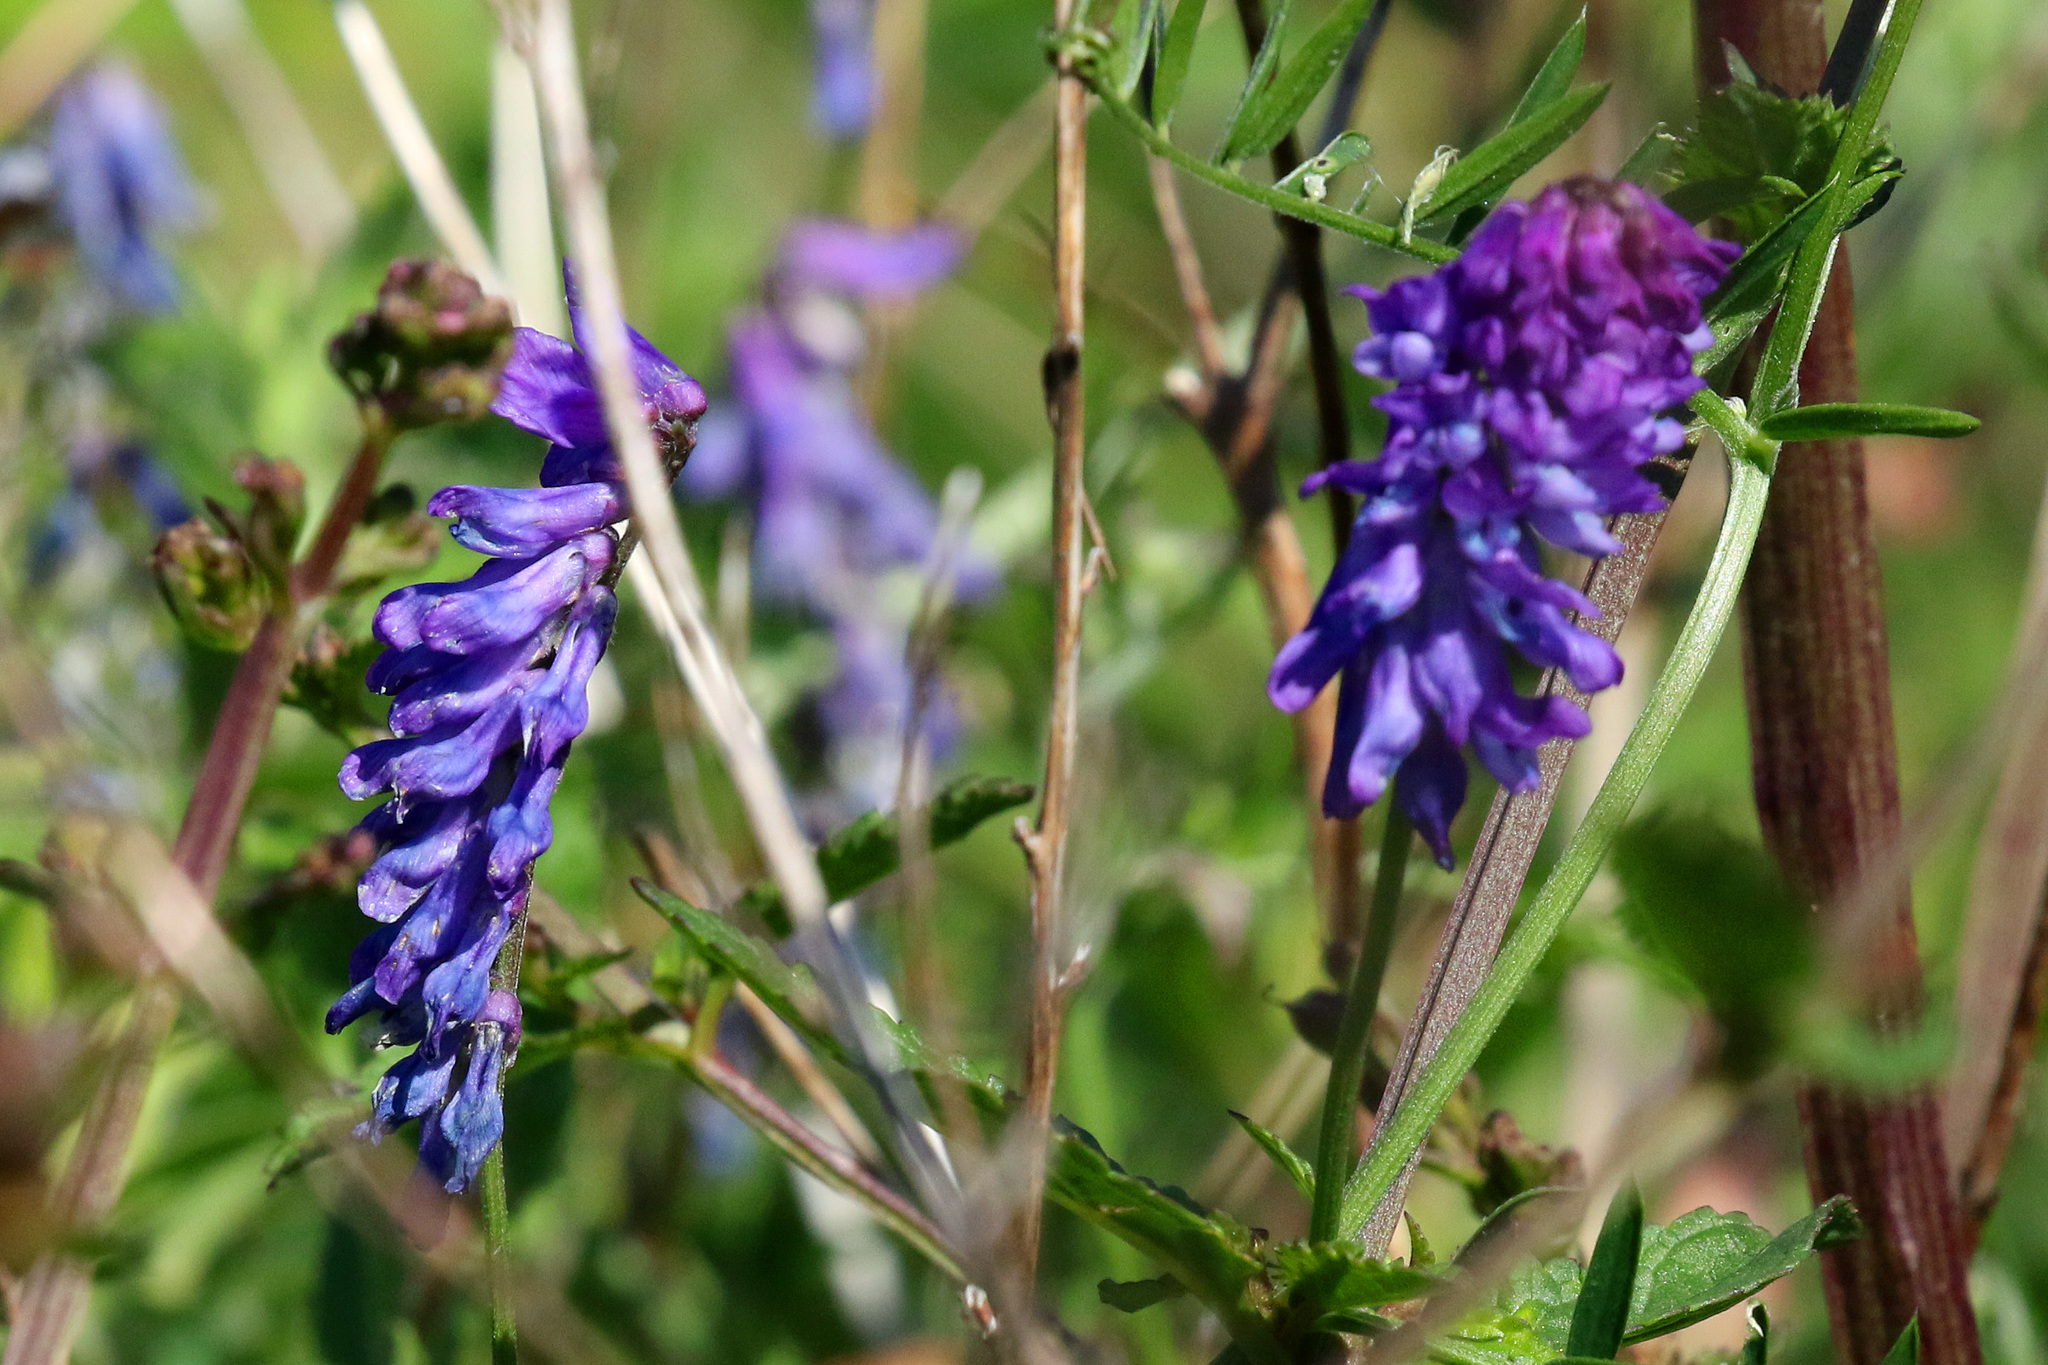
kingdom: Plantae
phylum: Tracheophyta
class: Magnoliopsida
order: Fabales
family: Fabaceae
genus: Vicia
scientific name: Vicia cracca
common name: Bird vetch
